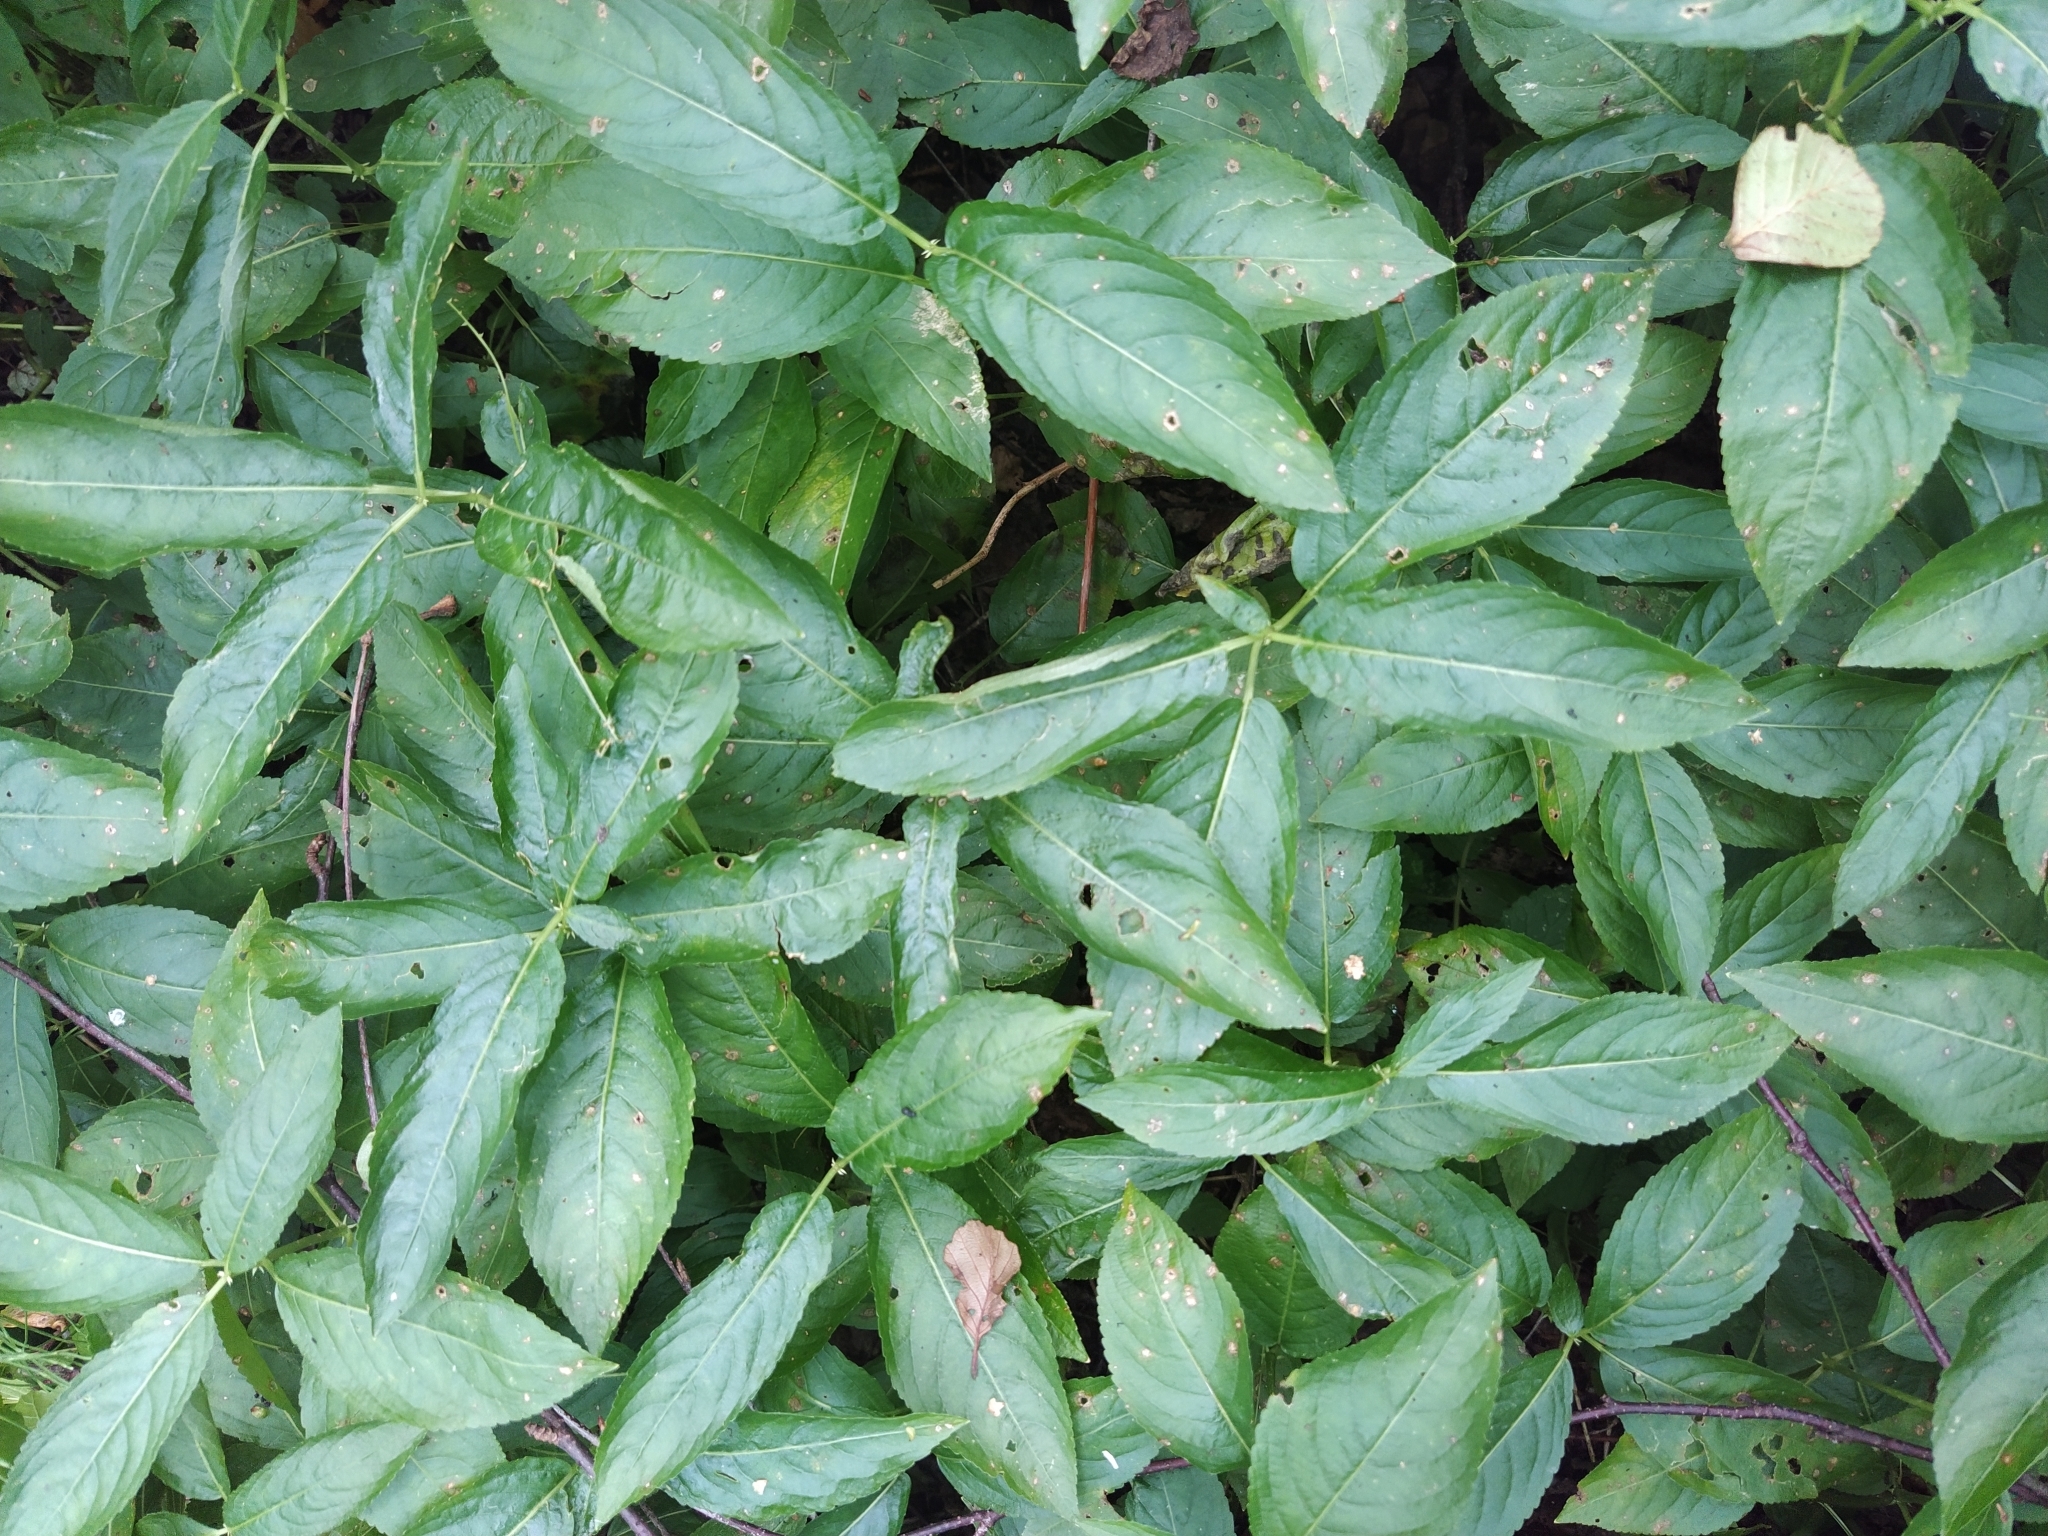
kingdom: Plantae
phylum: Tracheophyta
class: Magnoliopsida
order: Malpighiales
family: Euphorbiaceae
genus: Mercurialis
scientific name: Mercurialis perennis
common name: Dog mercury
